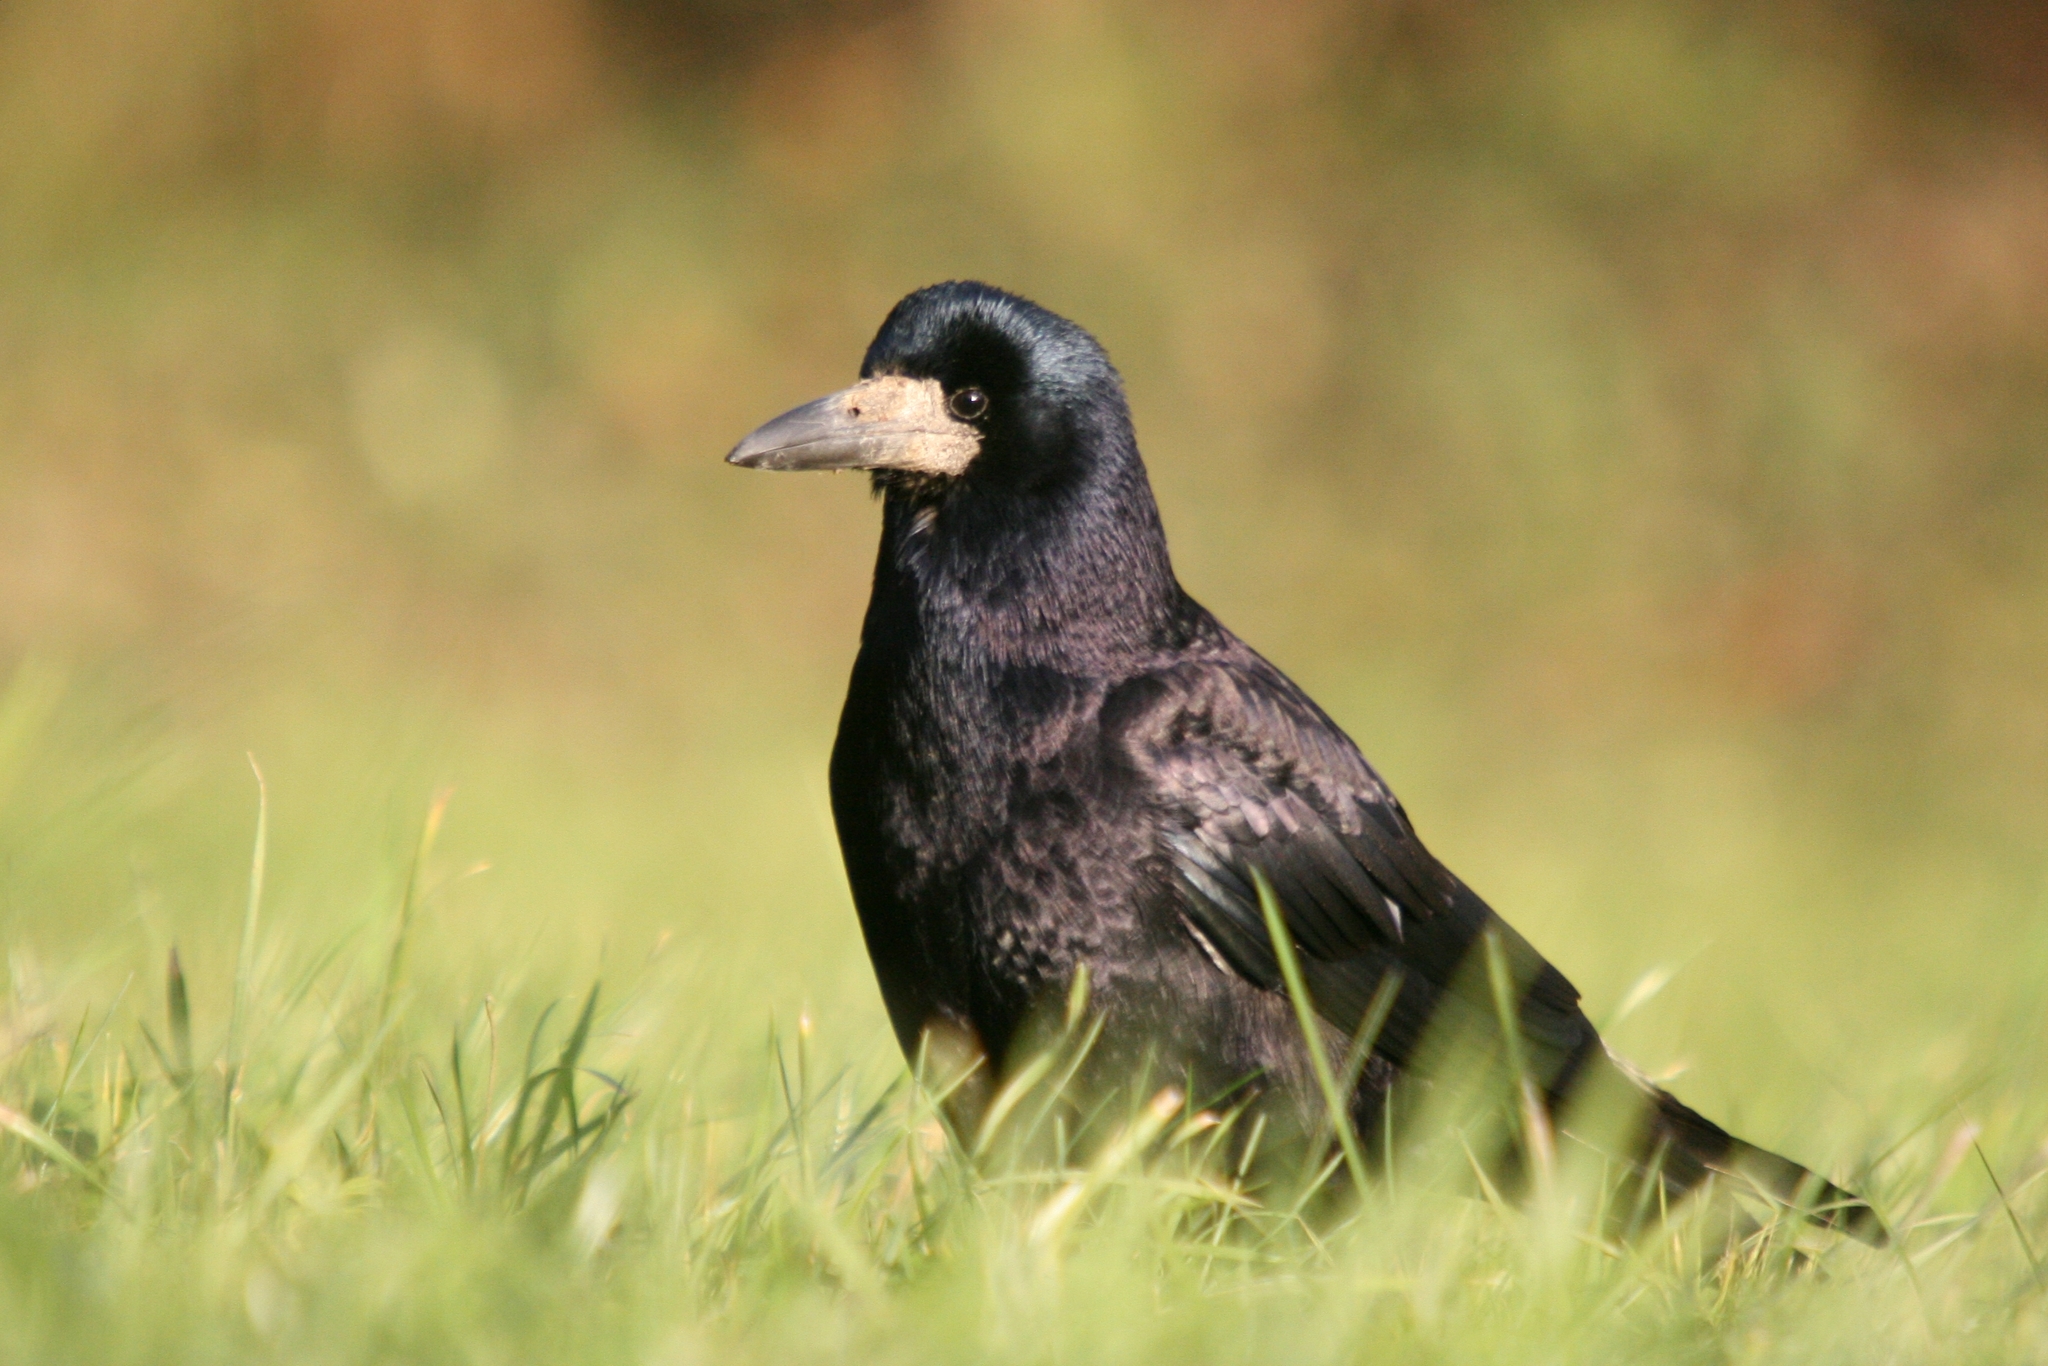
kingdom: Animalia
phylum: Chordata
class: Aves
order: Passeriformes
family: Corvidae
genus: Corvus
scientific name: Corvus frugilegus
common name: Rook
